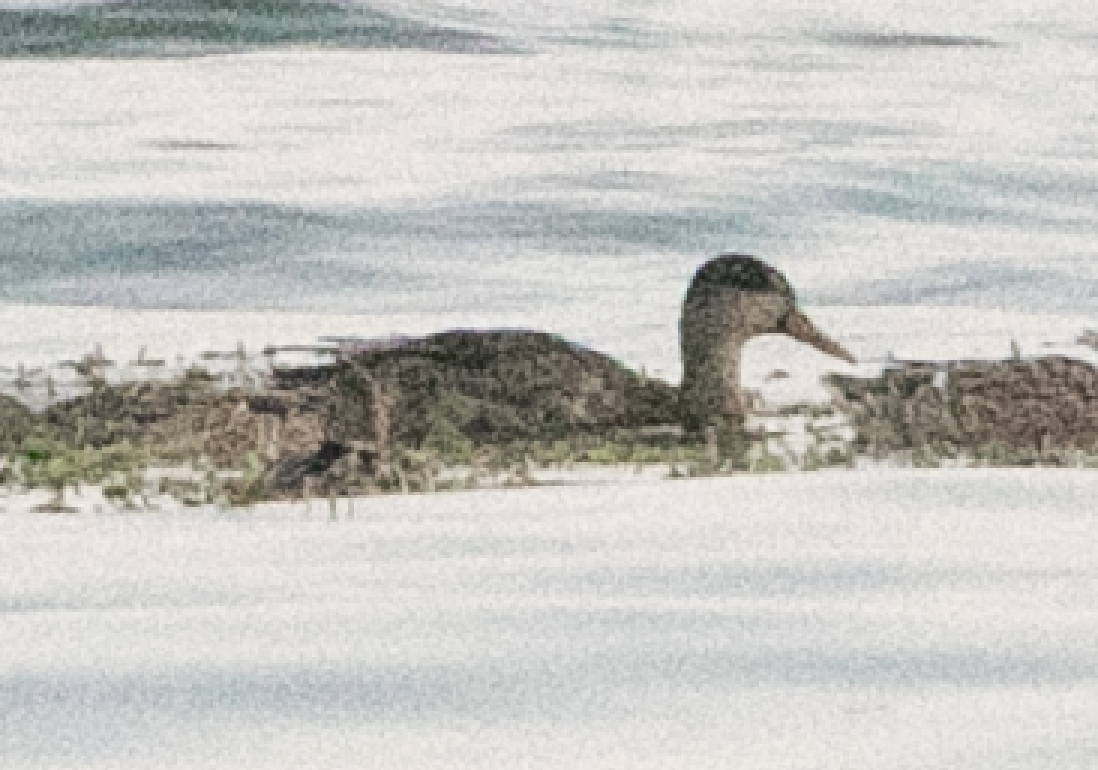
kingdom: Animalia
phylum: Chordata
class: Aves
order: Anseriformes
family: Anatidae
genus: Anas
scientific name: Anas platyrhynchos
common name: Mallard
